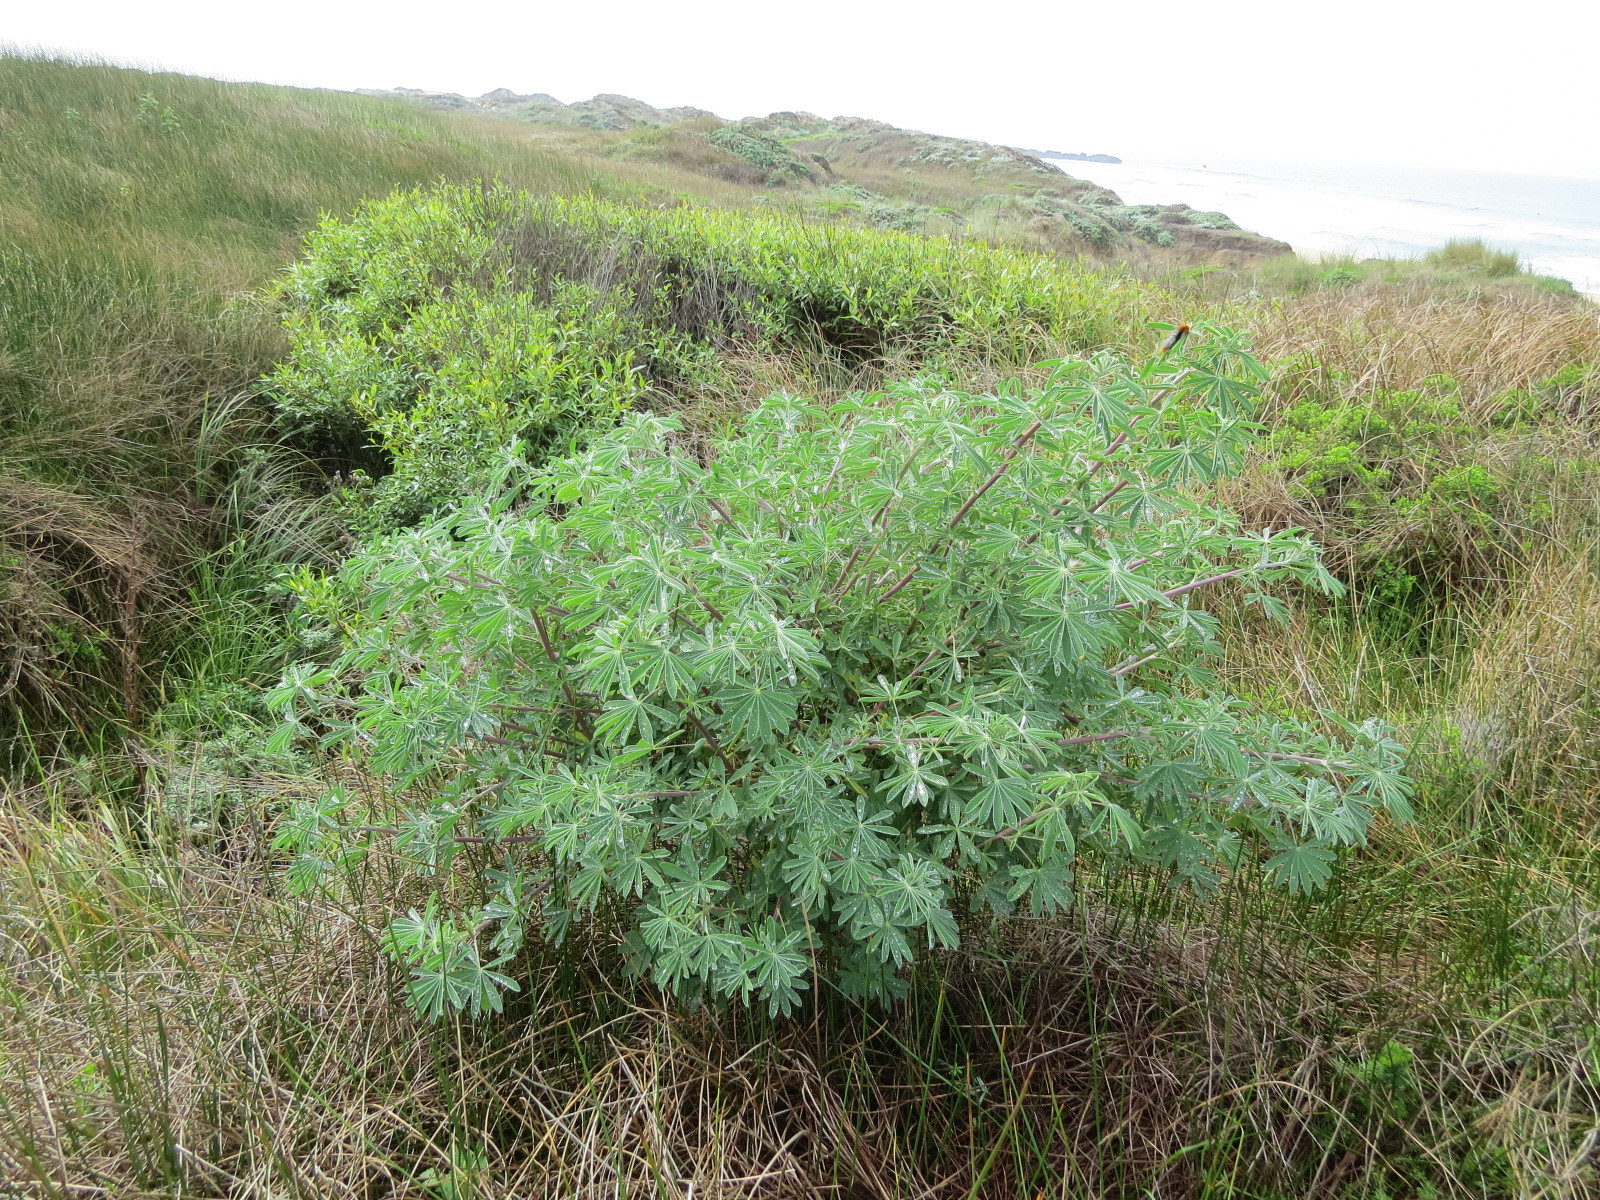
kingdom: Plantae
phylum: Tracheophyta
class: Magnoliopsida
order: Fabales
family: Fabaceae
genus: Lupinus
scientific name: Lupinus arboreus
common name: Yellow bush lupine
